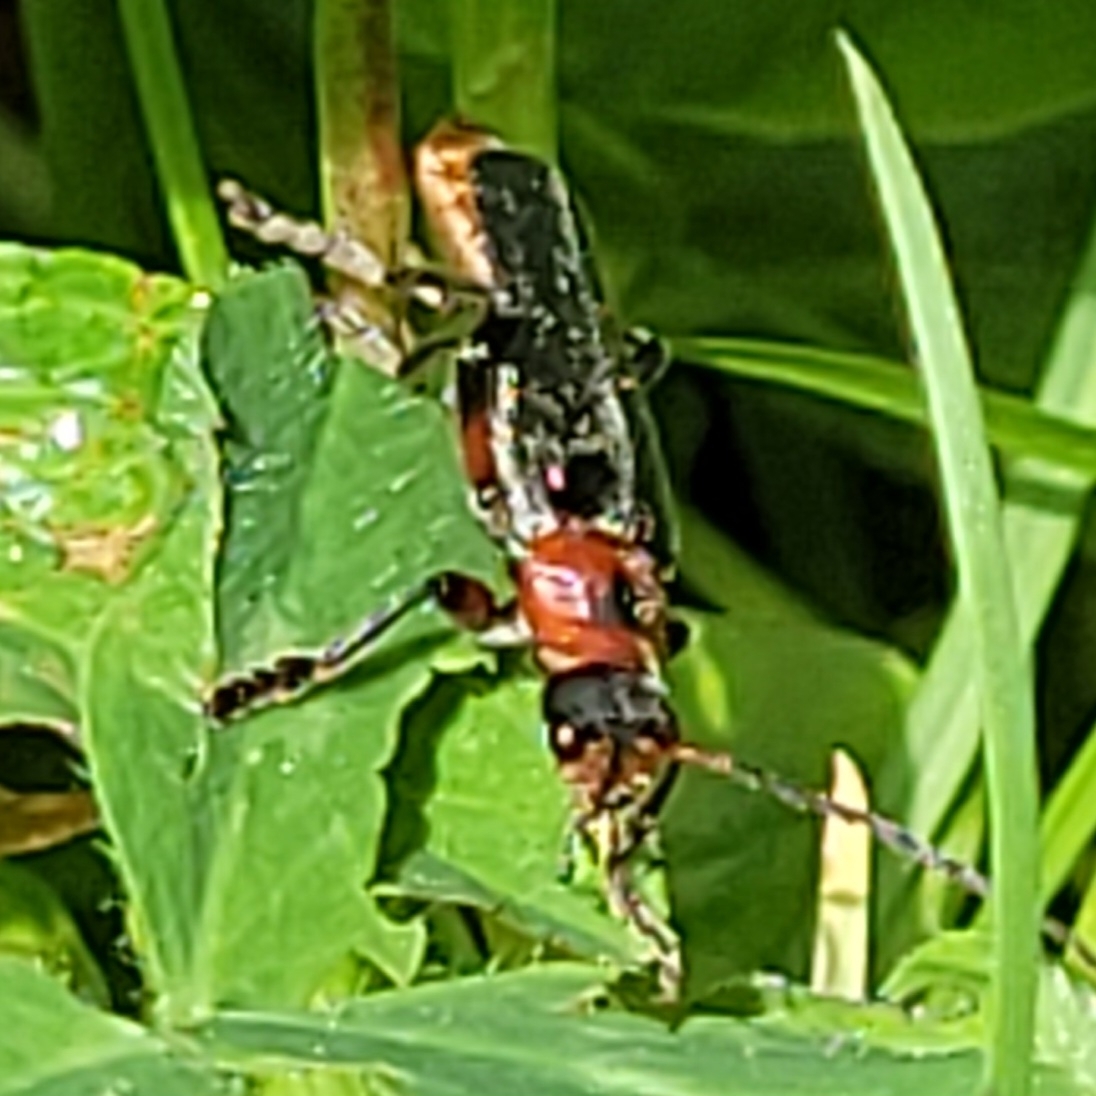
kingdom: Animalia
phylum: Arthropoda
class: Insecta
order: Coleoptera
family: Cantharidae
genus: Cantharis
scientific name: Cantharis rustica
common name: Soldier beetle
